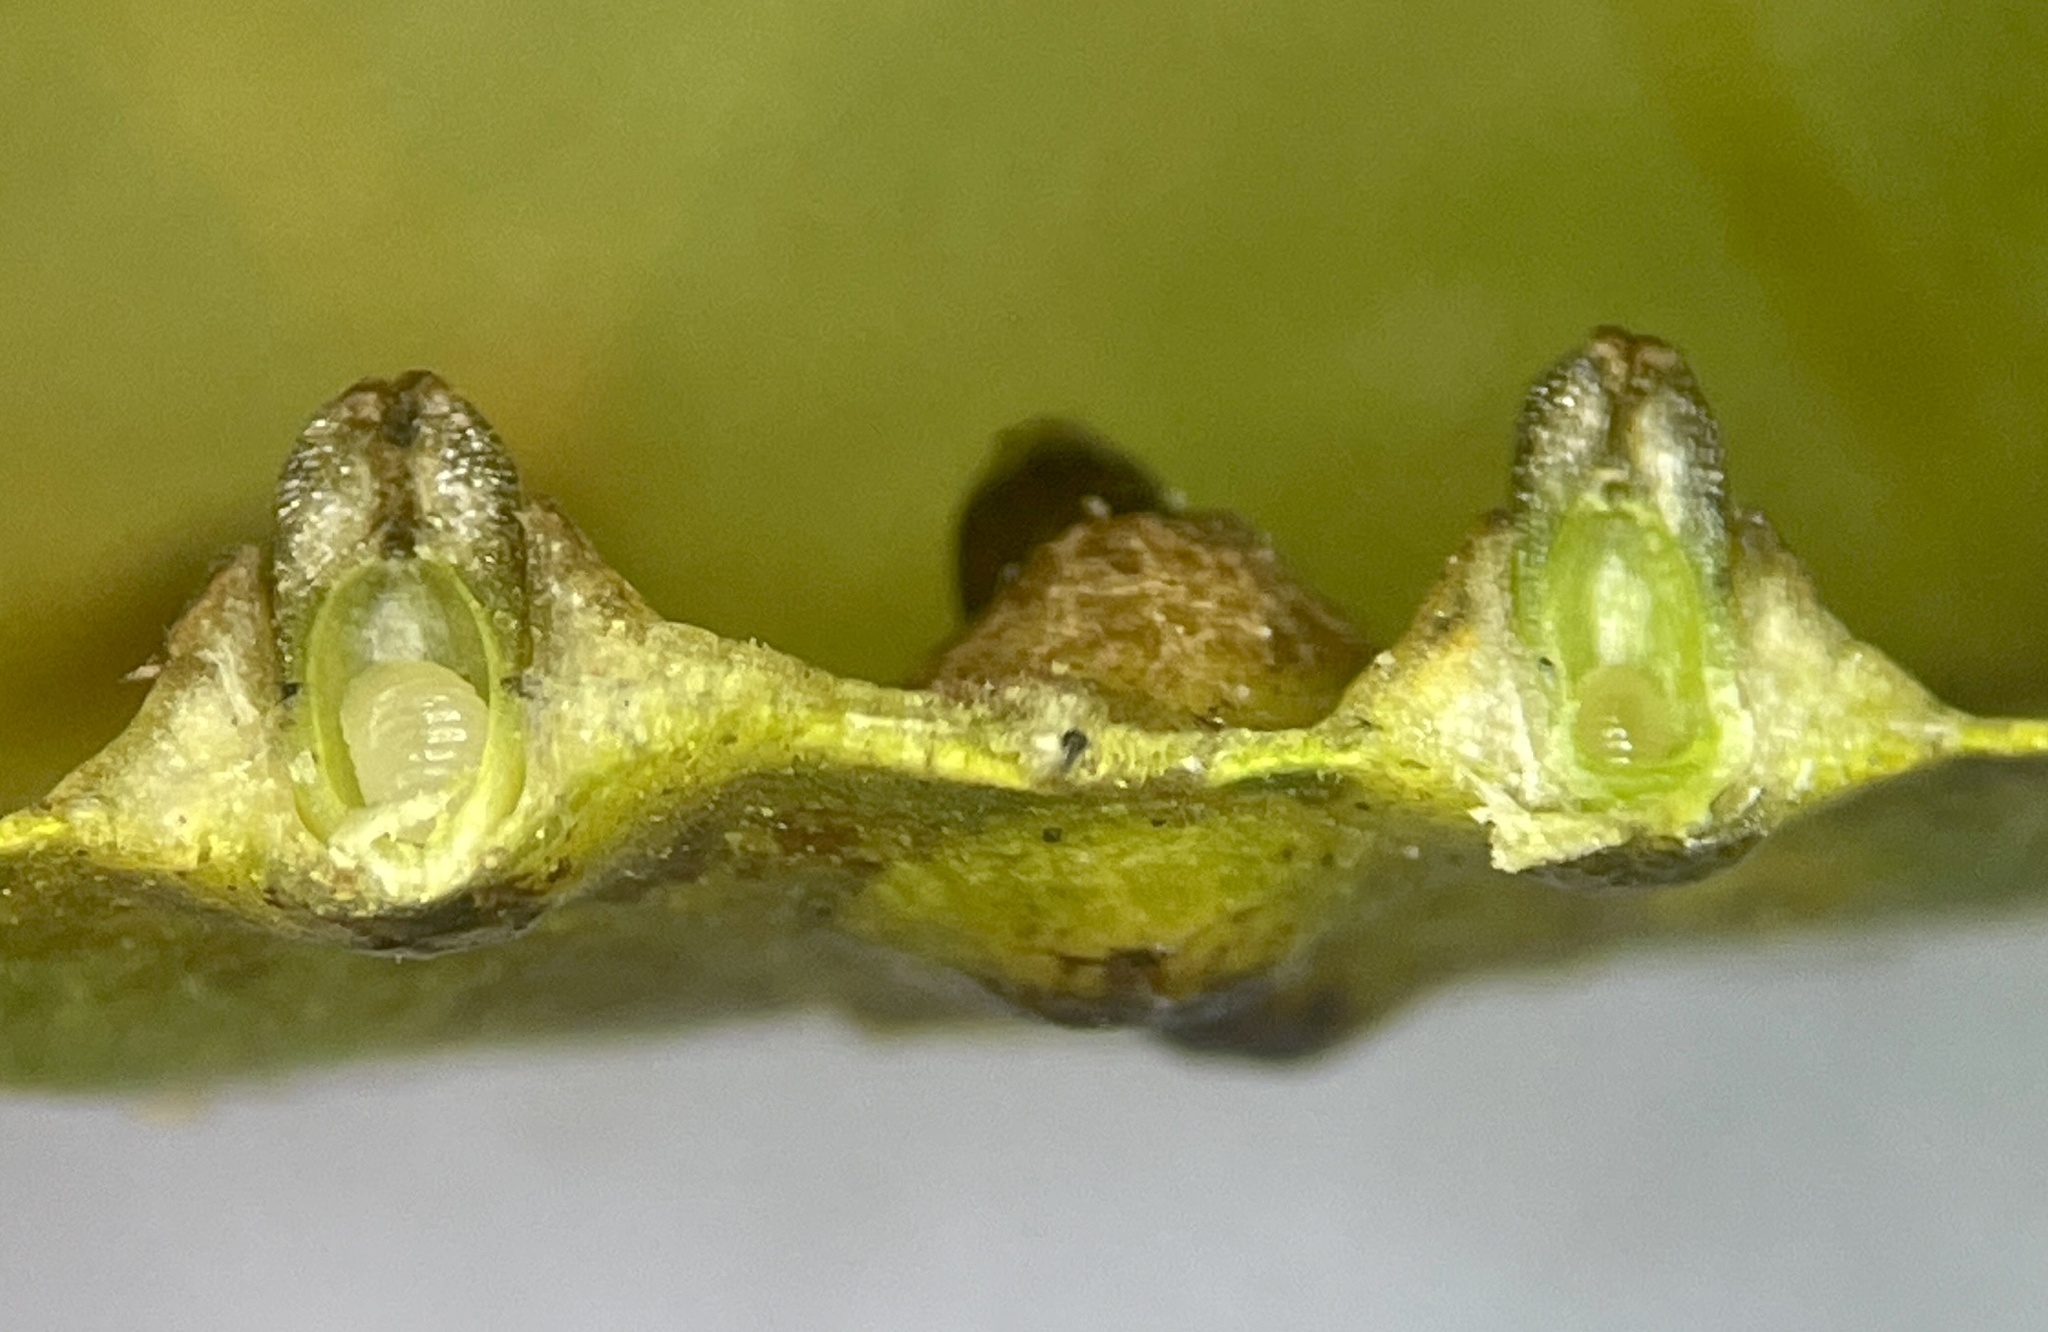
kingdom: Animalia
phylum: Arthropoda
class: Insecta
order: Diptera
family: Cecidomyiidae
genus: Caryomyia
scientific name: Caryomyia tubicola
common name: Hickory bullet gall midge
